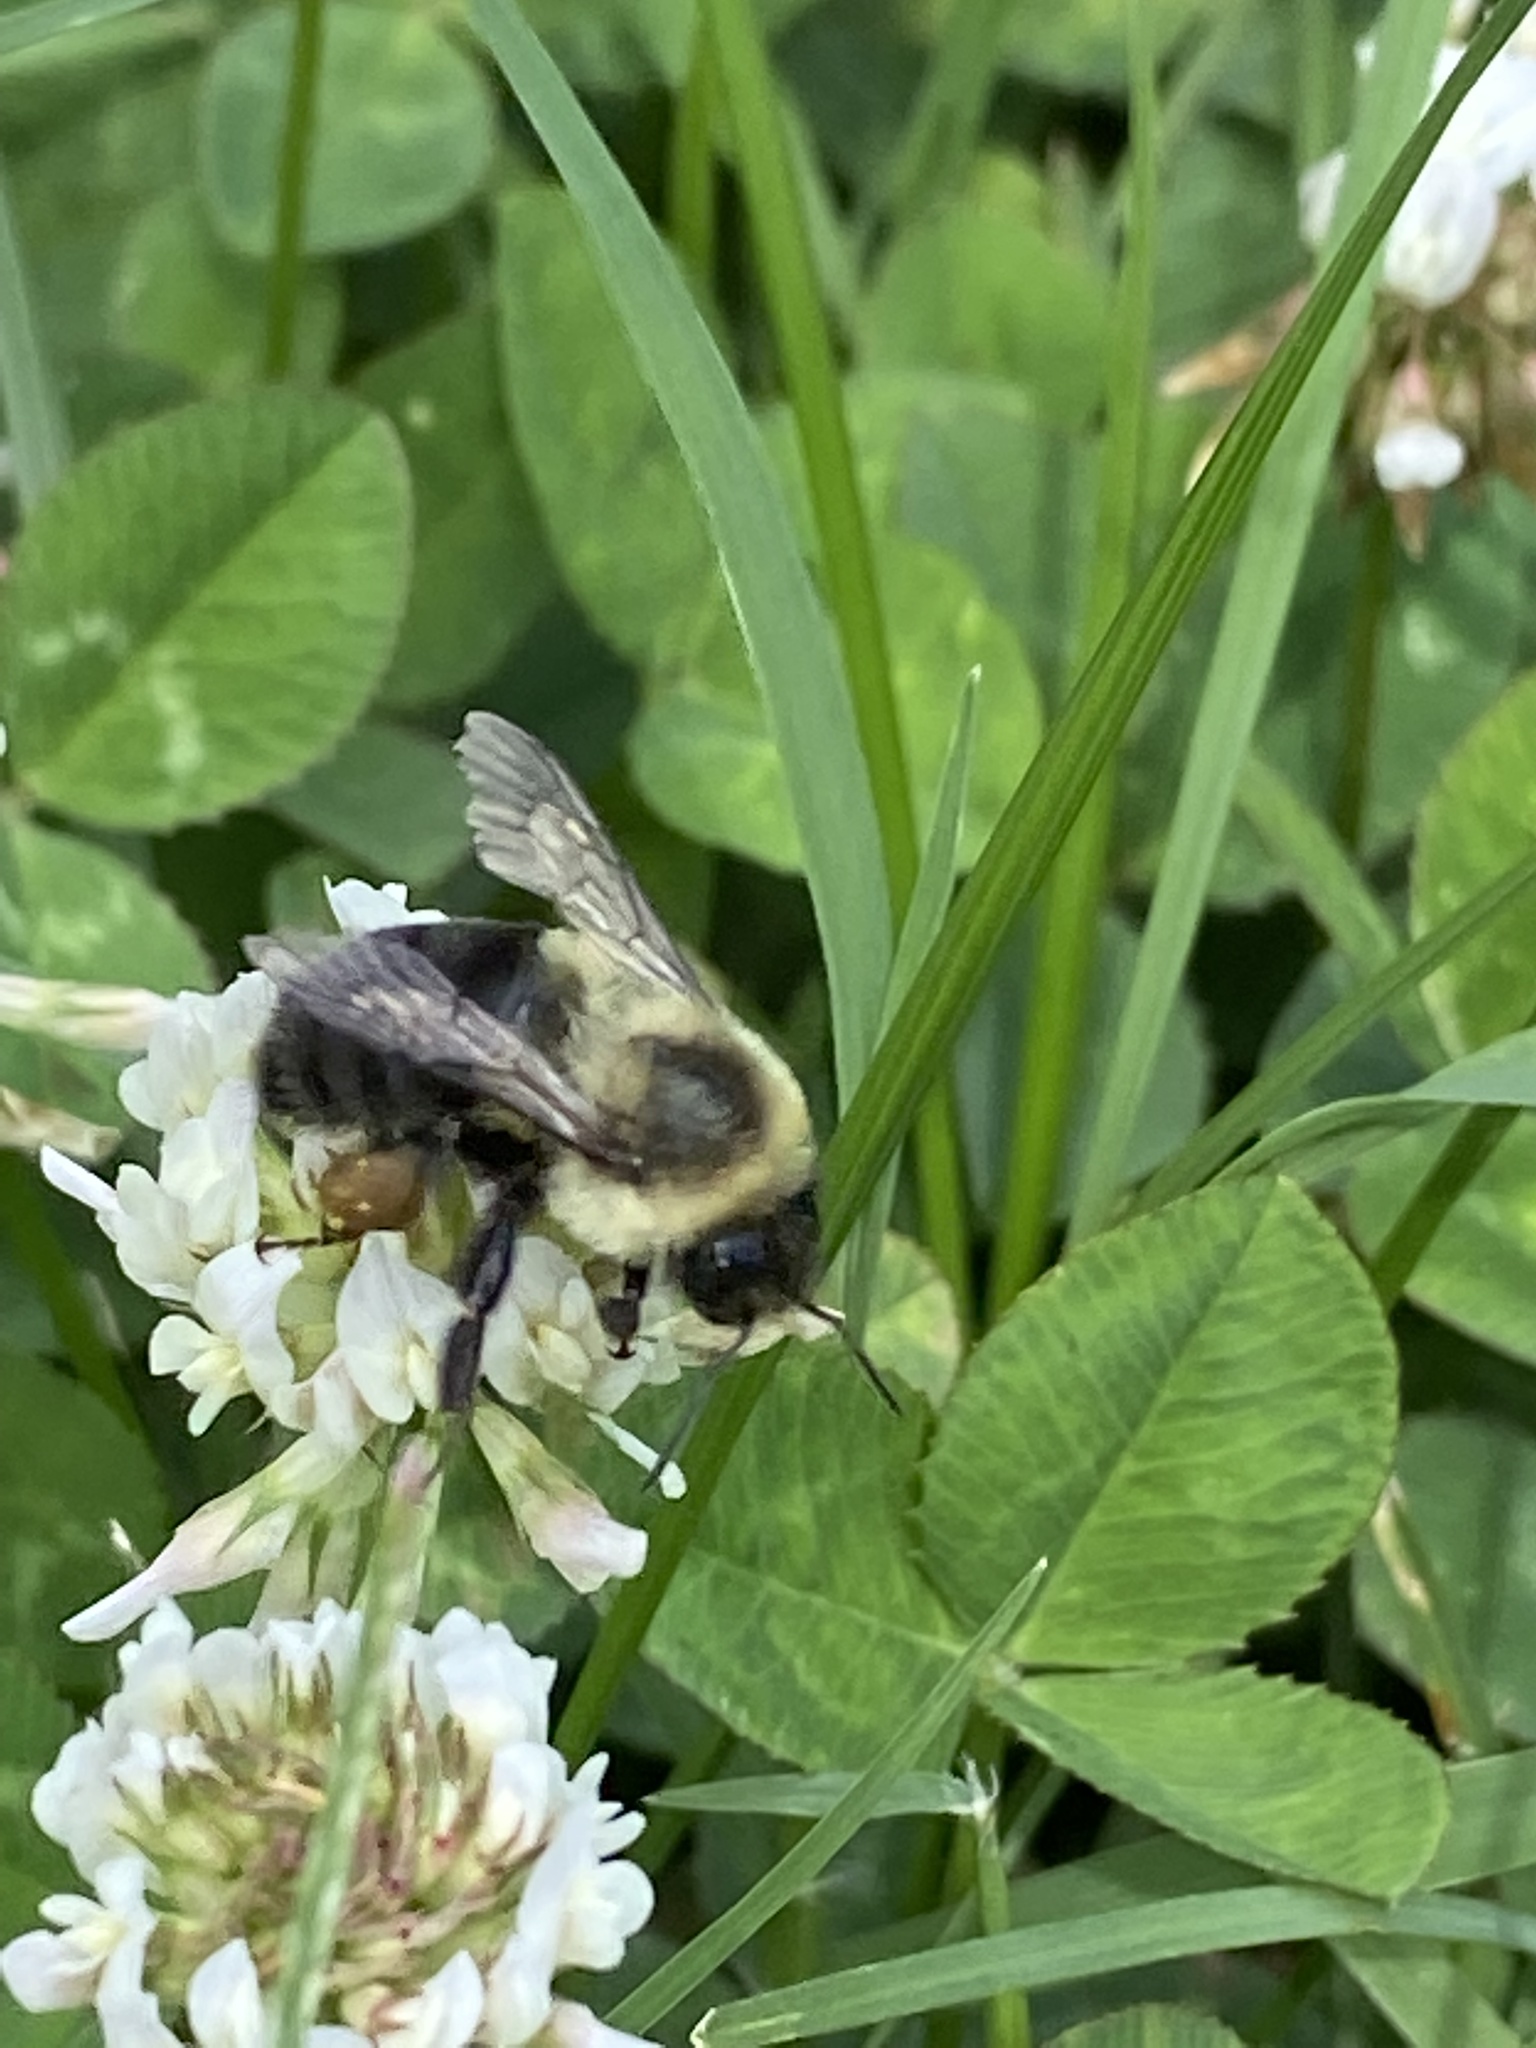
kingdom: Animalia
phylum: Arthropoda
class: Insecta
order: Hymenoptera
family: Apidae
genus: Bombus
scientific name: Bombus impatiens
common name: Common eastern bumble bee
